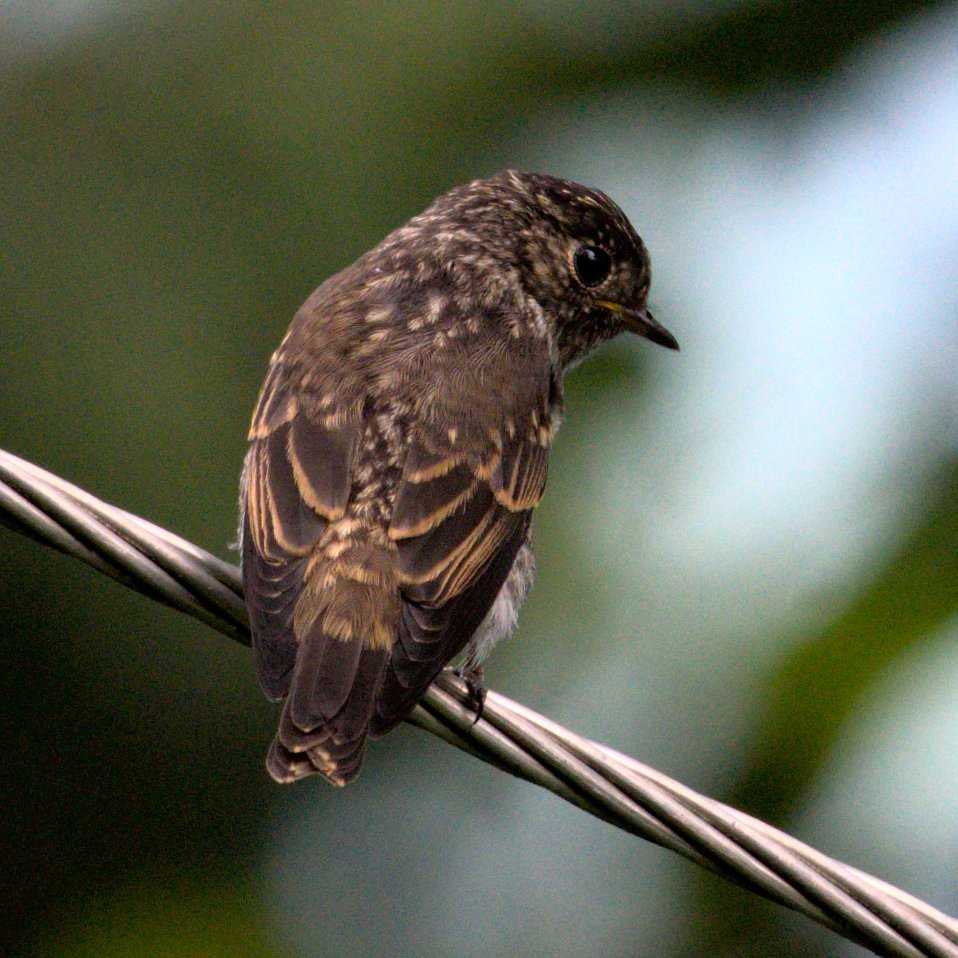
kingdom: Animalia
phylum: Chordata
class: Aves
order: Passeriformes
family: Muscicapidae
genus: Muscicapa
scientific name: Muscicapa sibirica
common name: Dark-sided flycatcher
